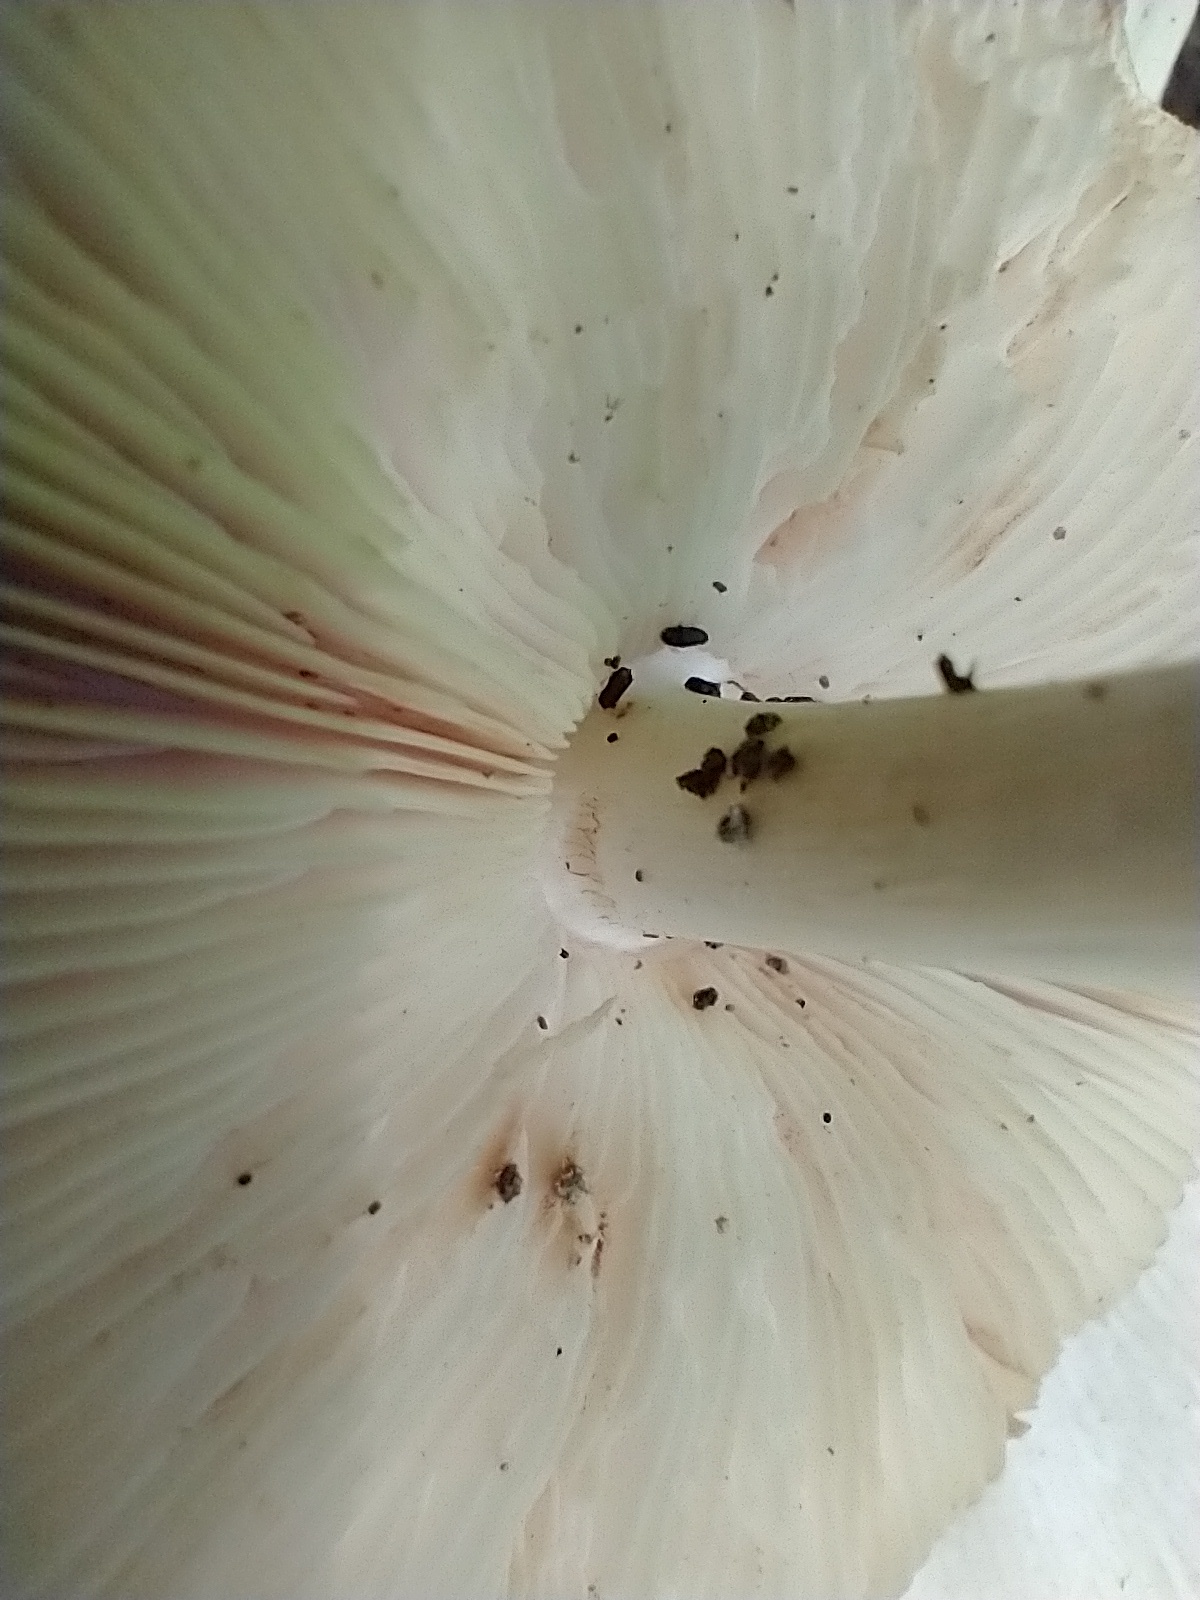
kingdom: Fungi
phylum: Basidiomycota
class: Agaricomycetes
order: Agaricales
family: Pluteaceae
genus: Pluteus
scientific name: Pluteus cervinus
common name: Deer shield
